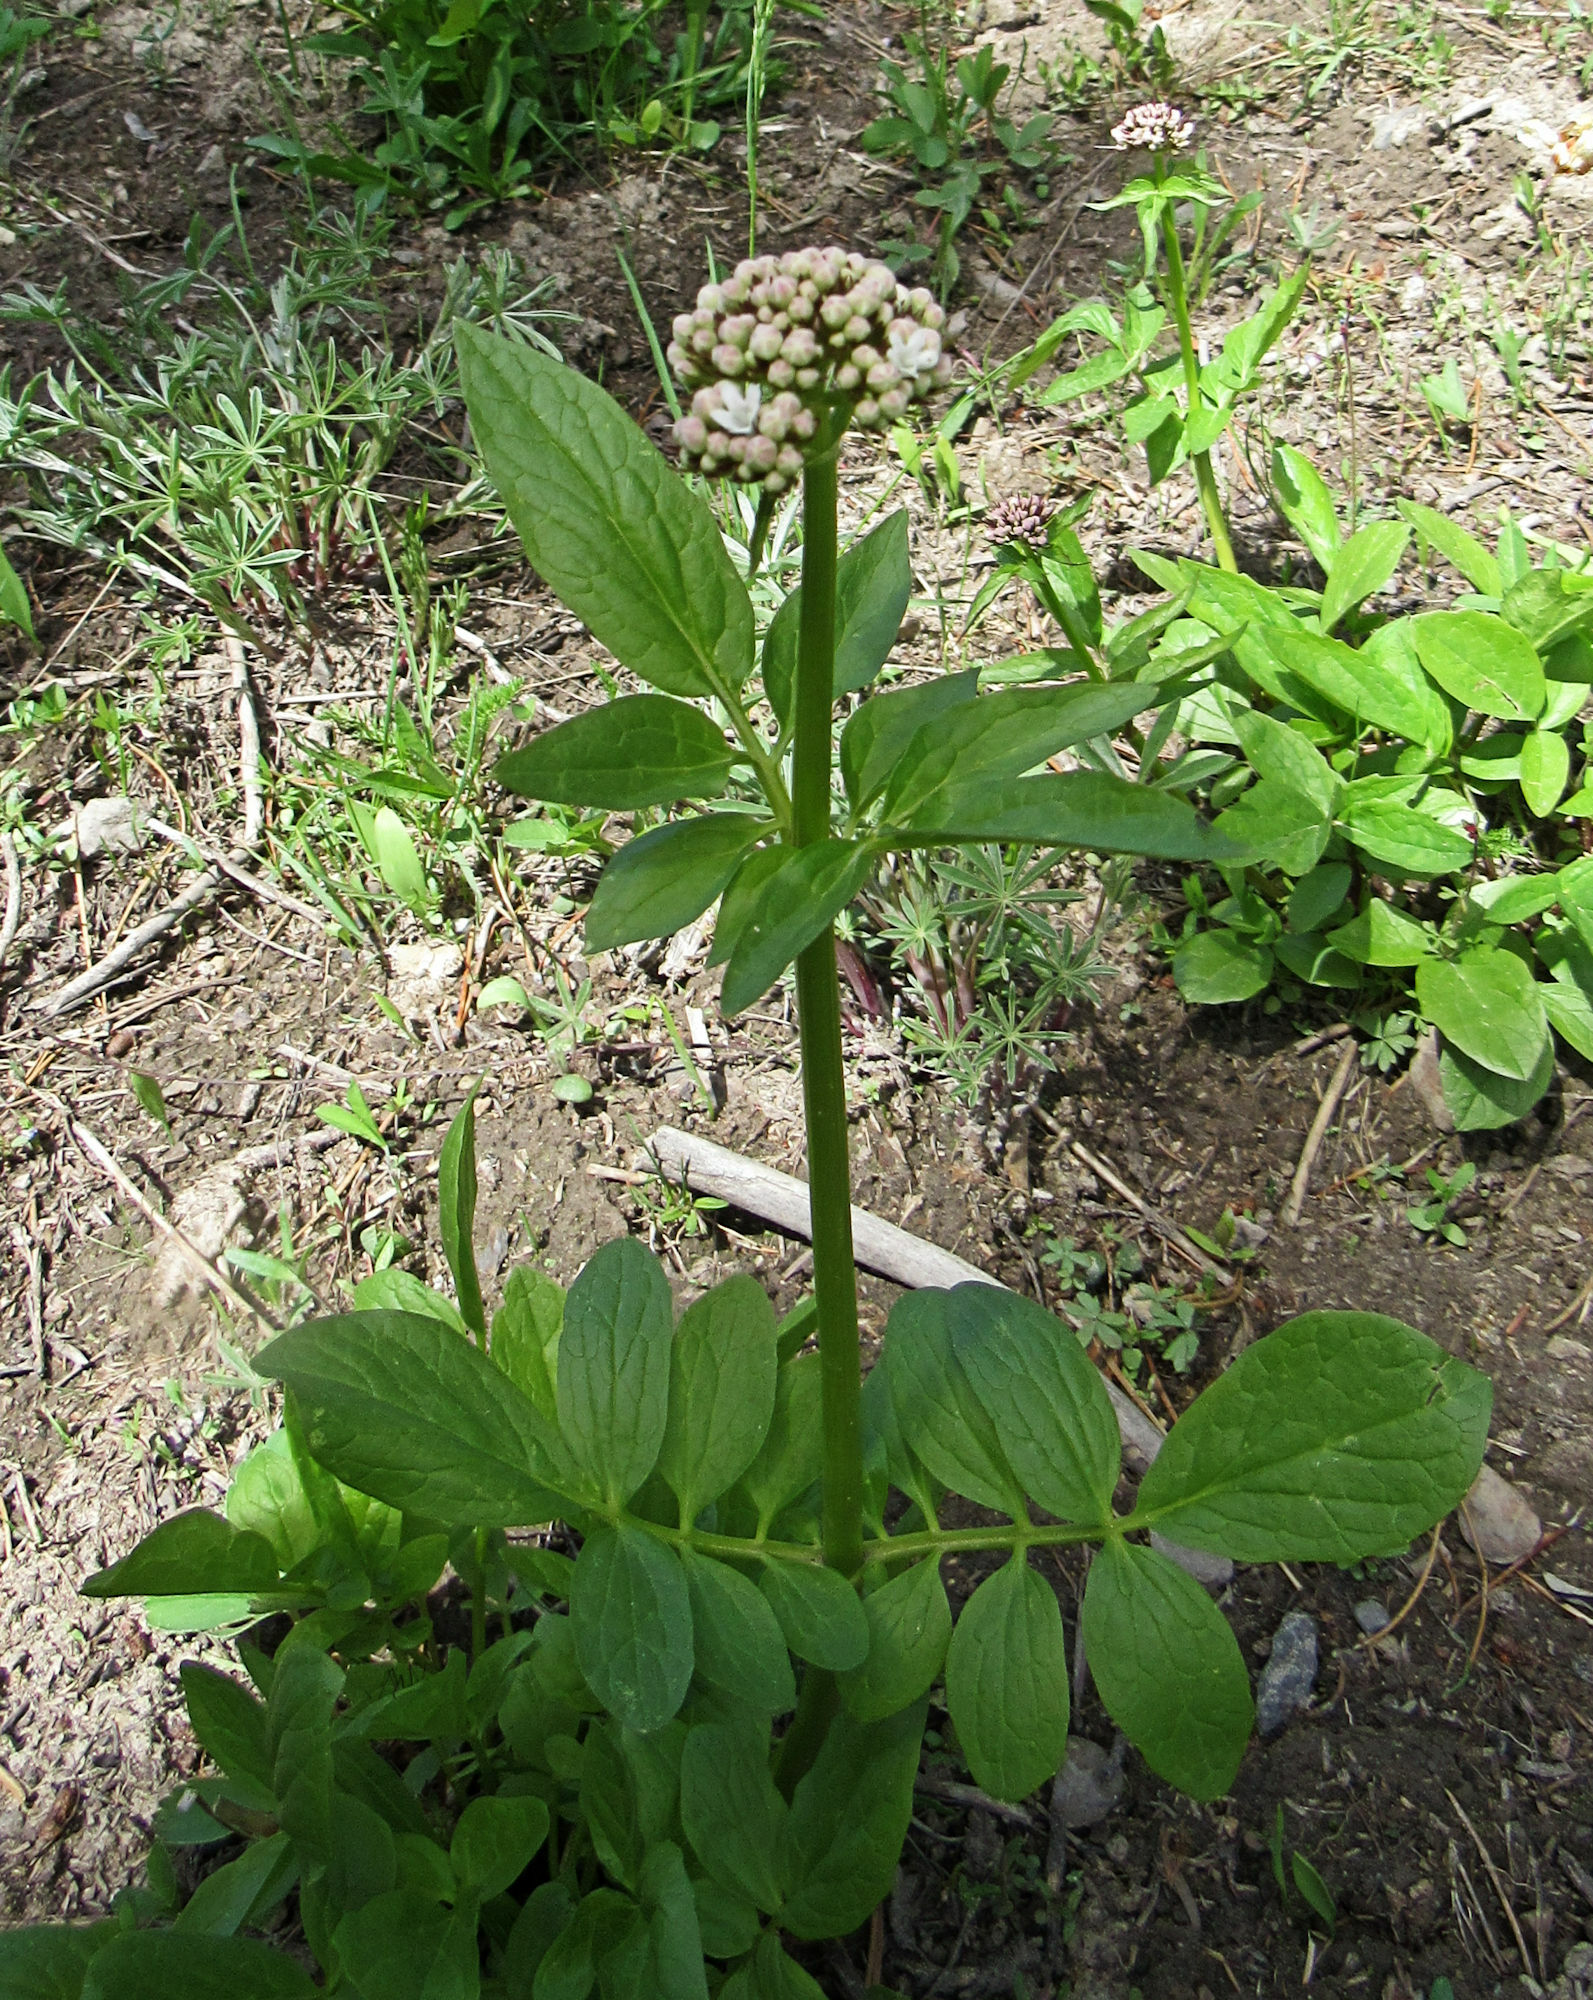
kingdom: Plantae
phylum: Tracheophyta
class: Magnoliopsida
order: Dipsacales
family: Caprifoliaceae
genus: Valeriana
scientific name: Valeriana occidentalis
